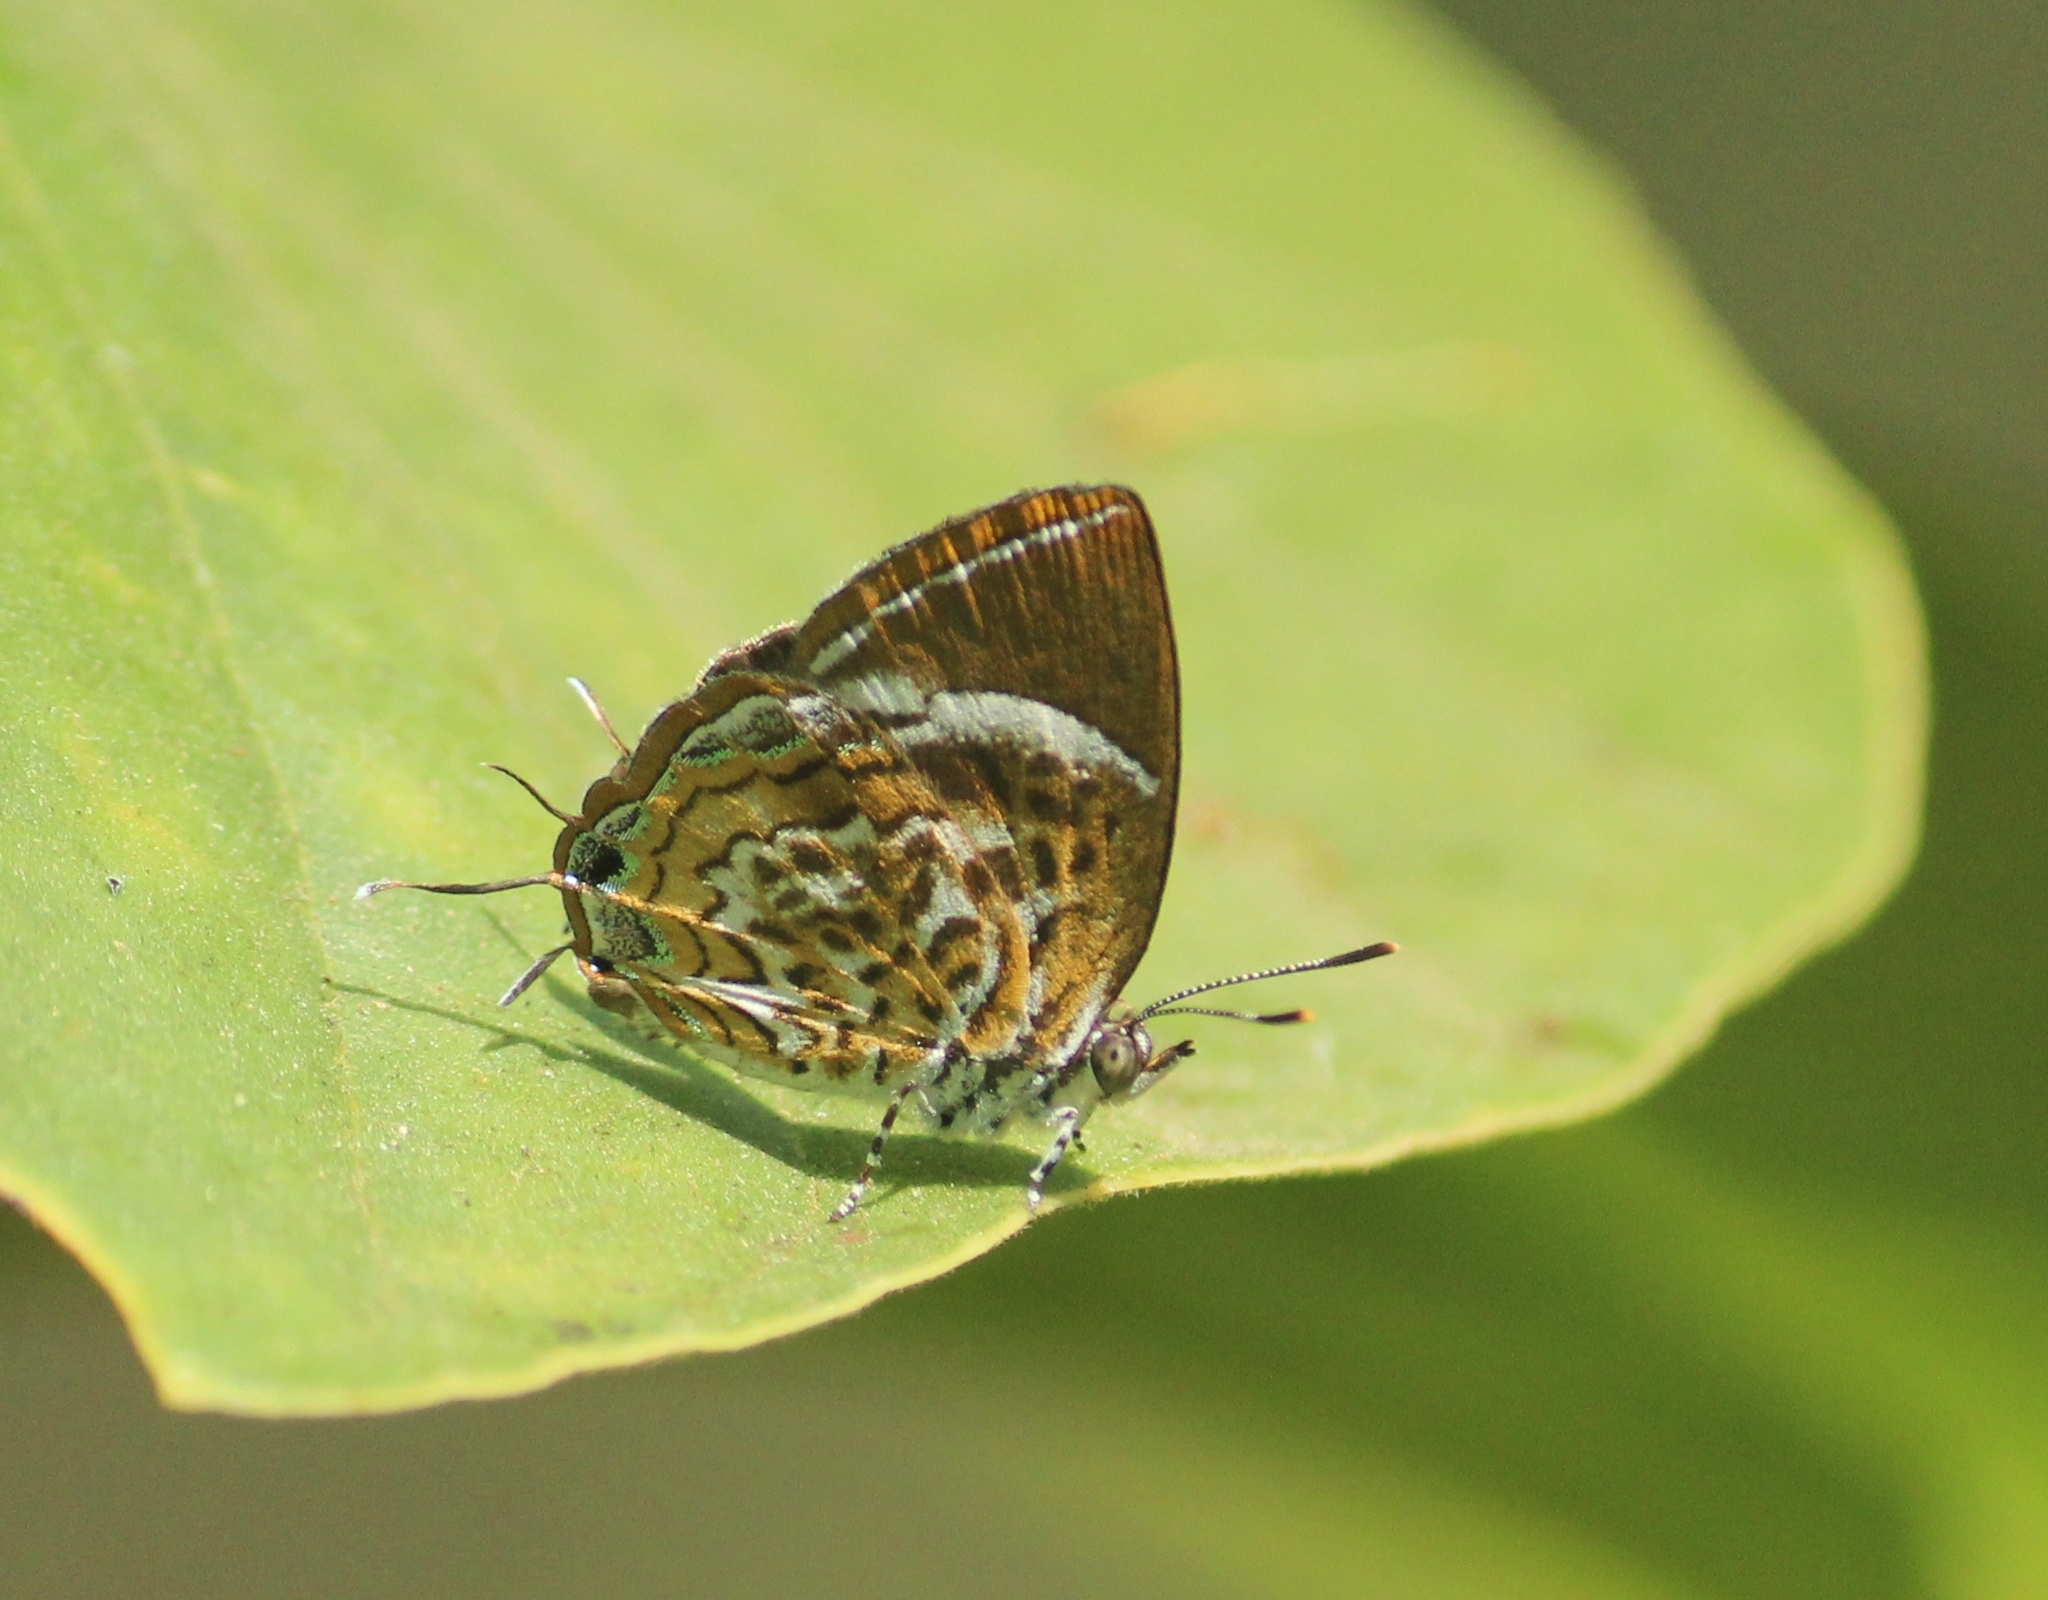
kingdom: Animalia
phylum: Arthropoda
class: Insecta
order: Lepidoptera
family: Lycaenidae
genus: Rathinda
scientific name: Rathinda amor
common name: Monkey puzzle
